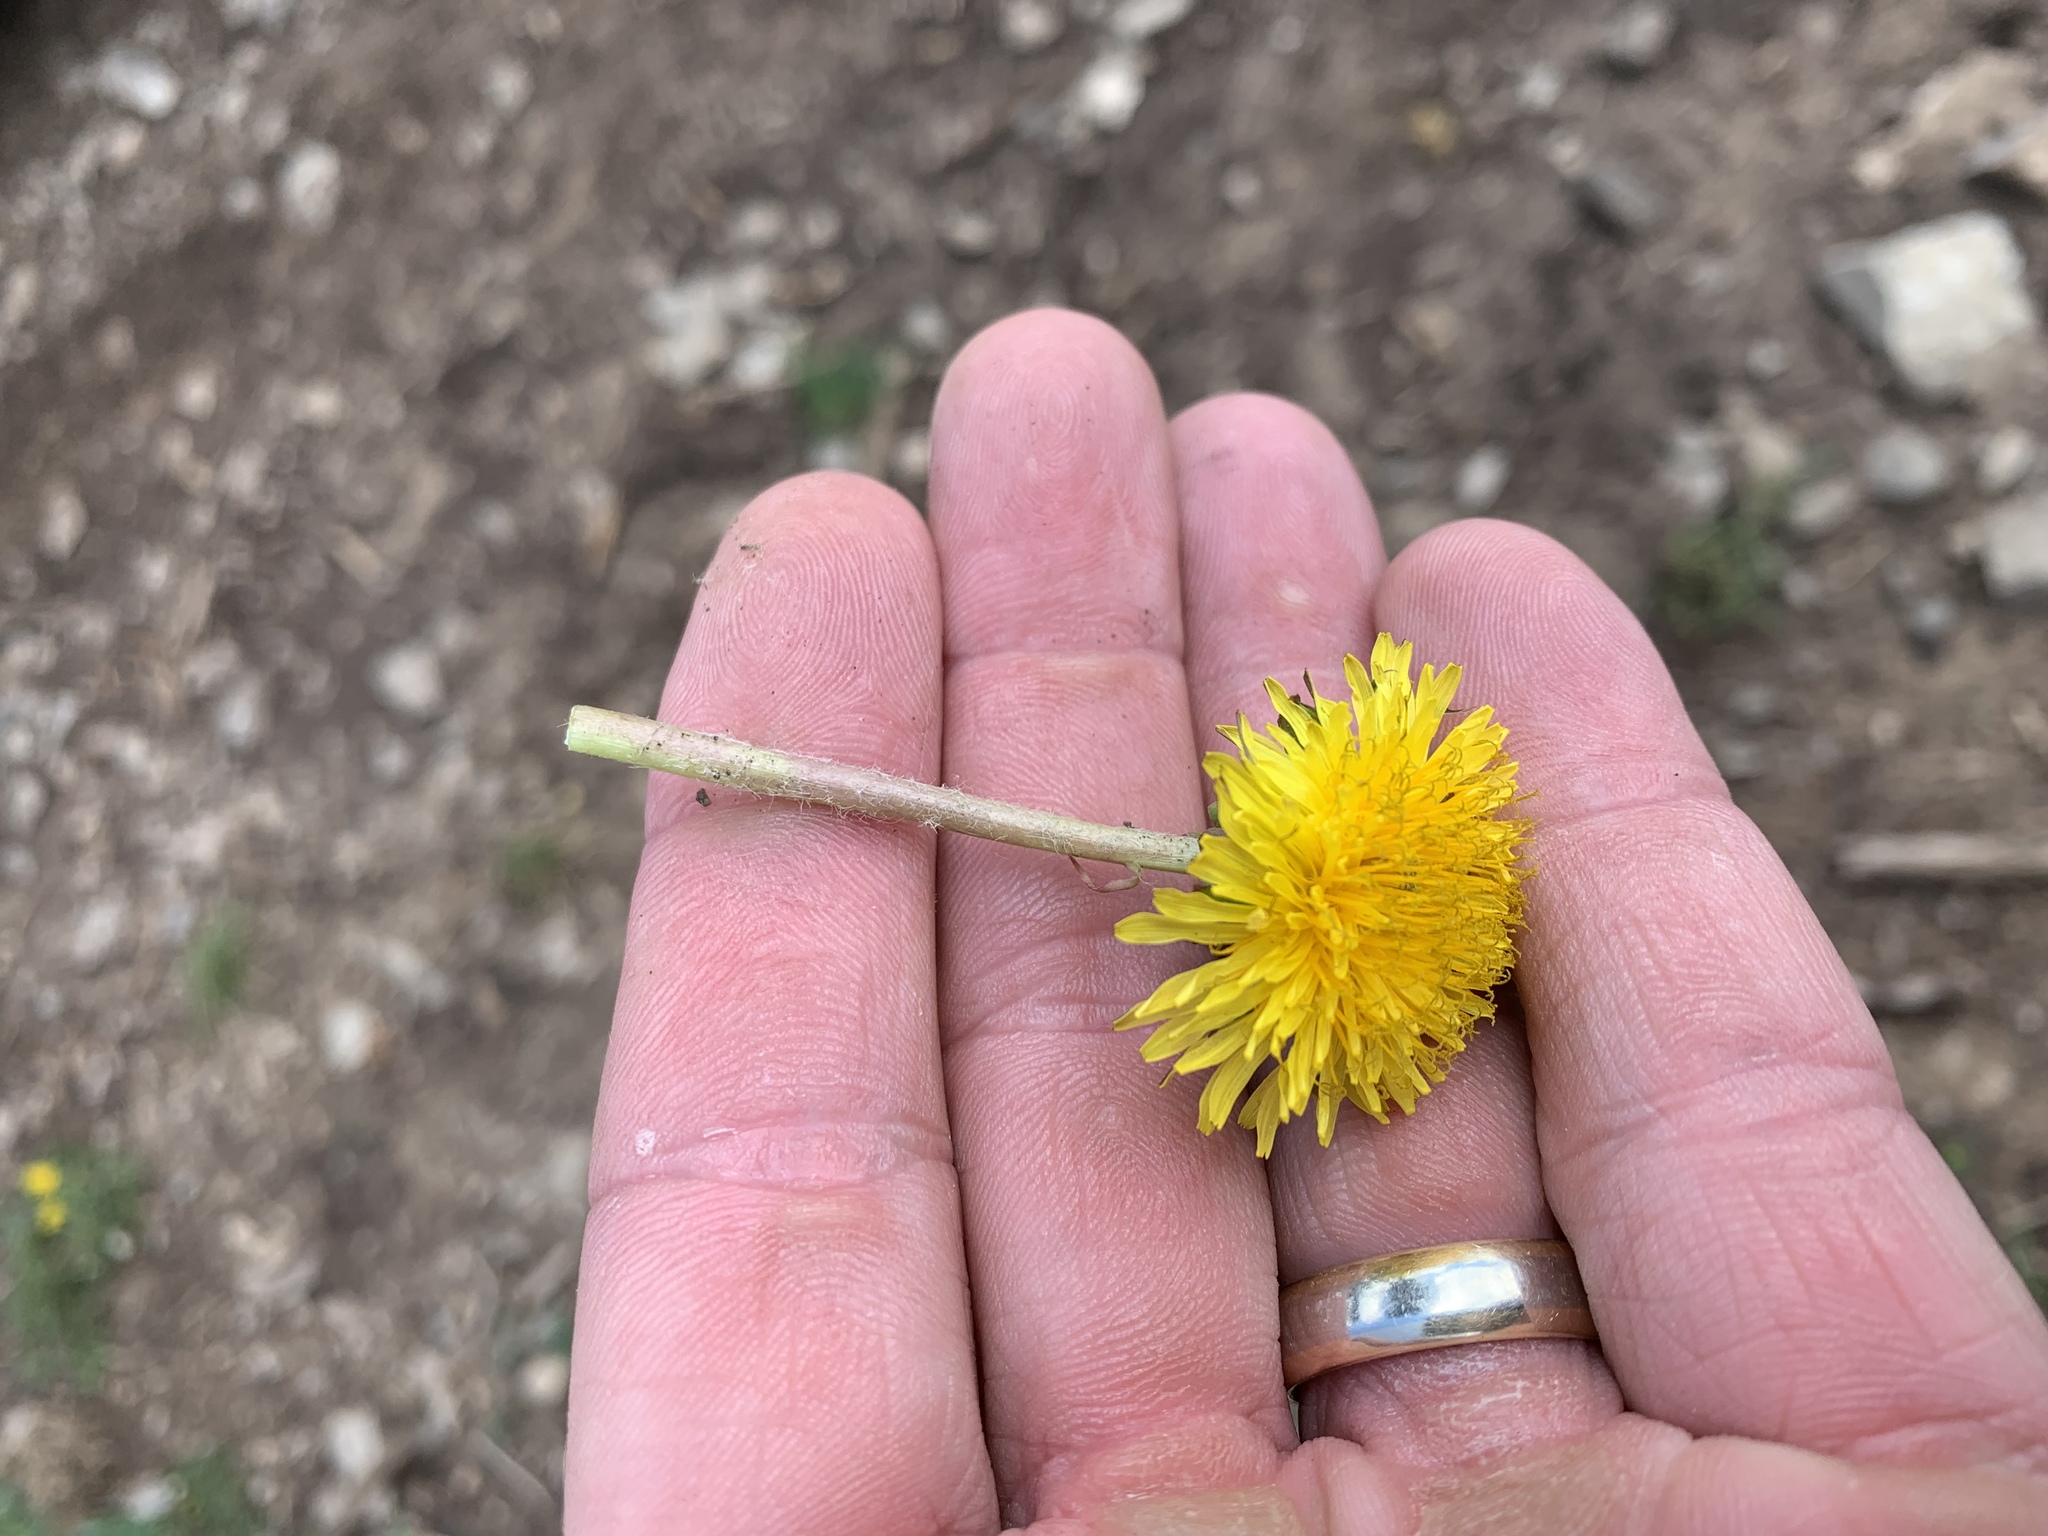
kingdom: Plantae
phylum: Tracheophyta
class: Magnoliopsida
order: Asterales
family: Asteraceae
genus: Taraxacum
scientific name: Taraxacum officinale
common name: Common dandelion
